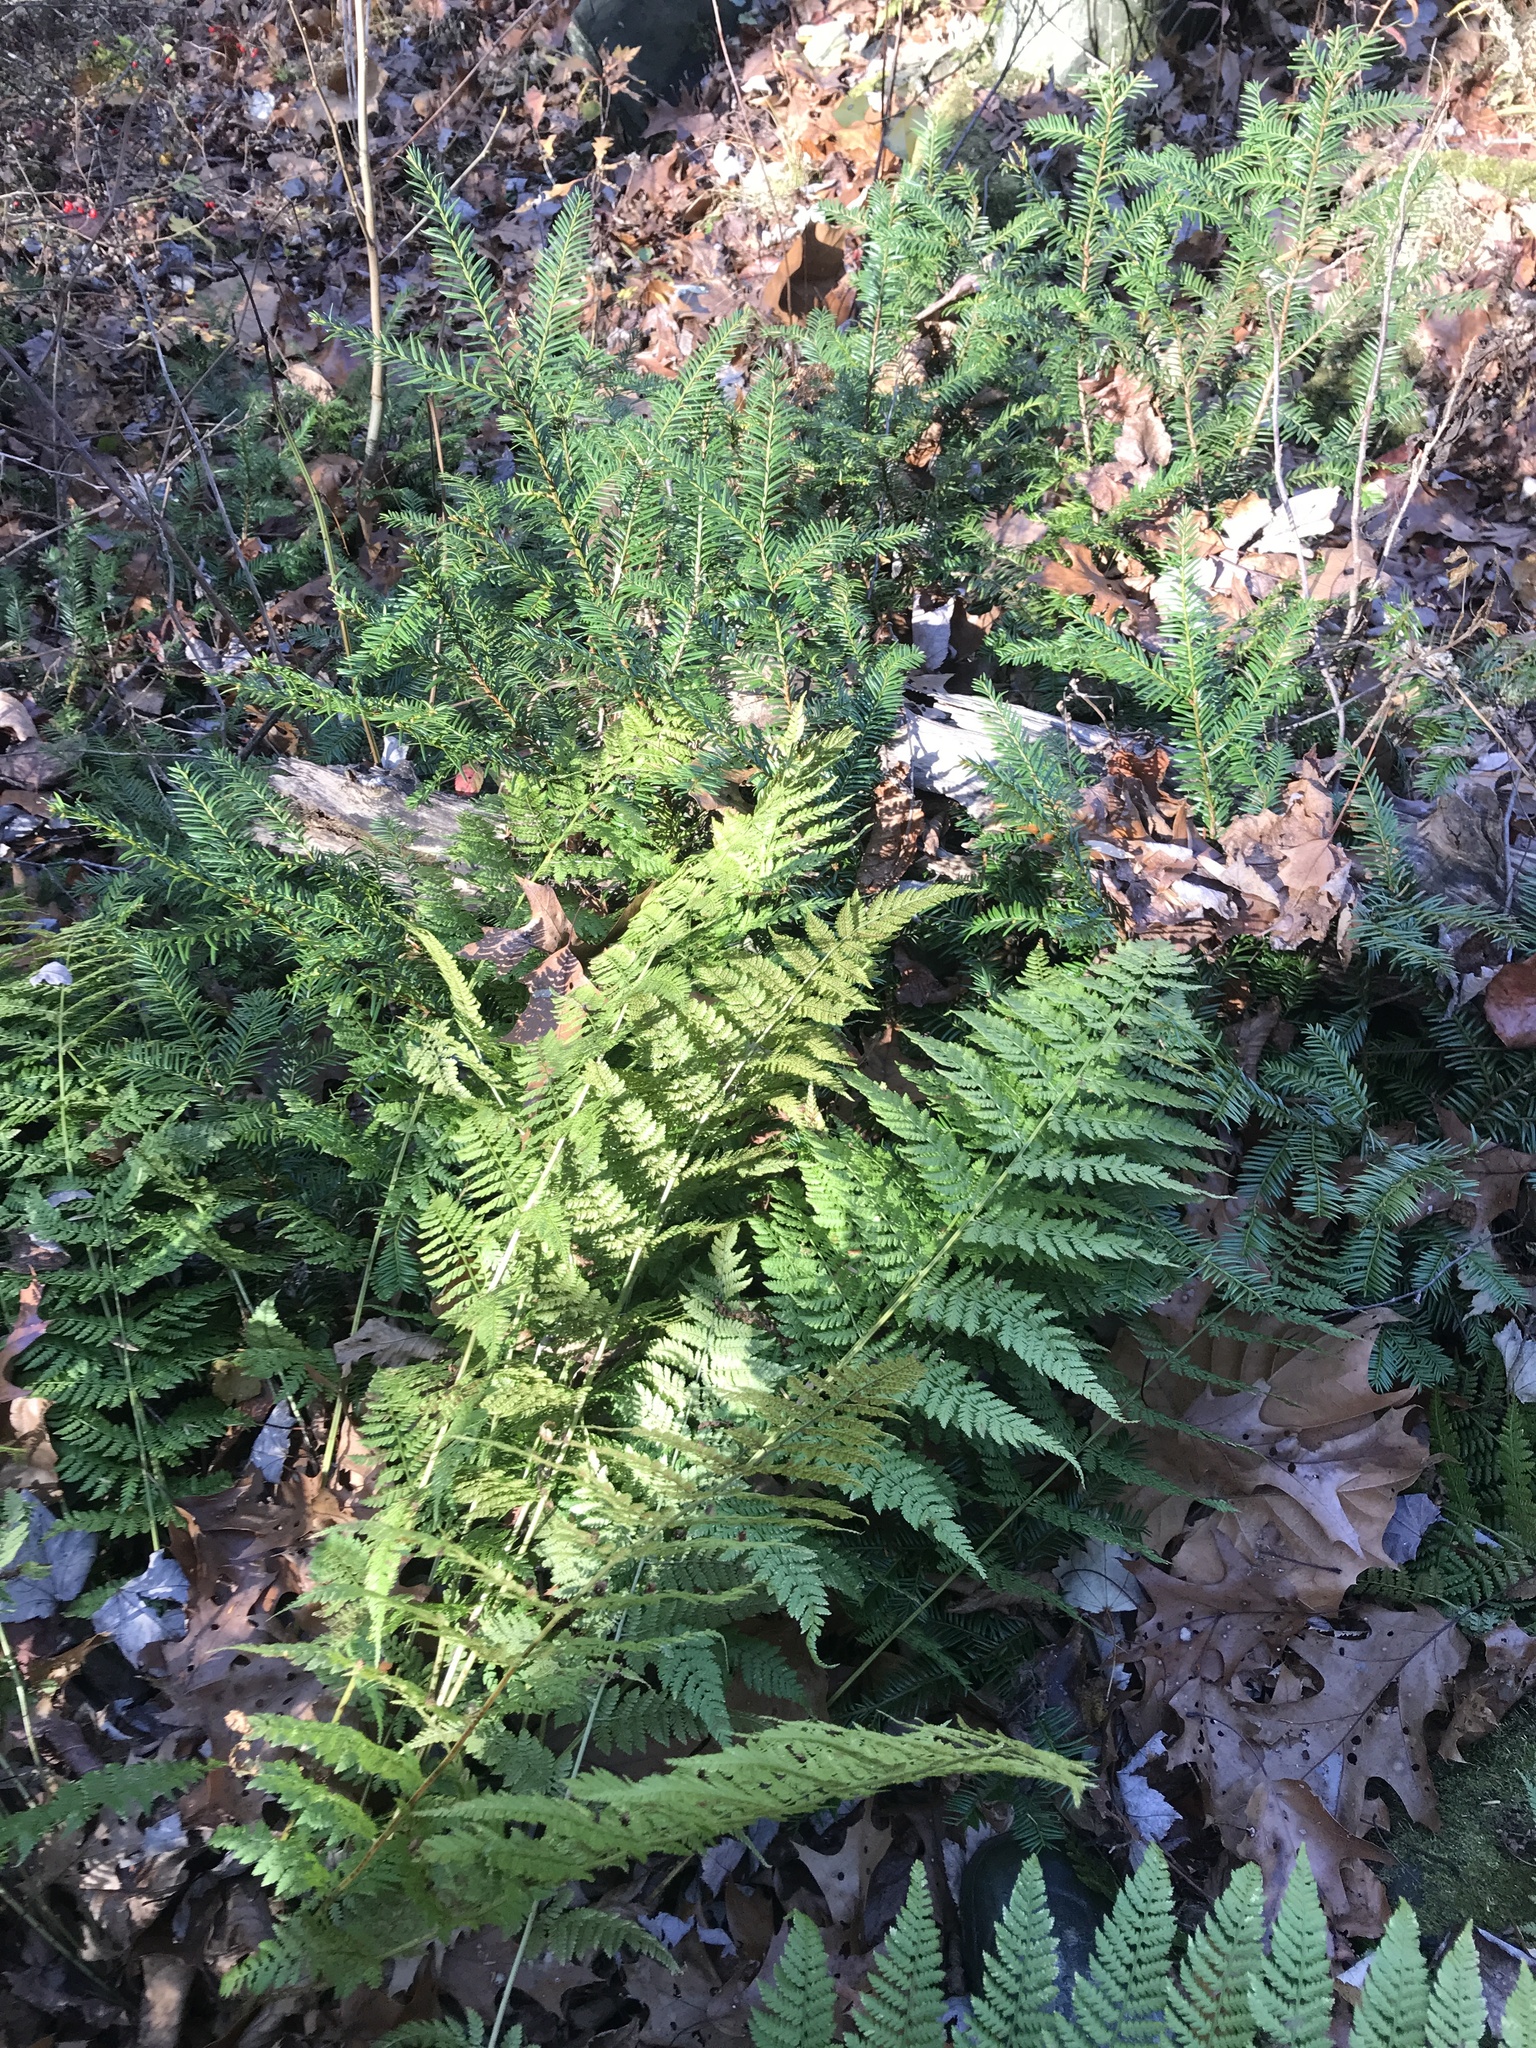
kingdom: Plantae
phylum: Tracheophyta
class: Pinopsida
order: Pinales
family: Taxaceae
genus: Taxus
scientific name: Taxus canadensis
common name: American yew
